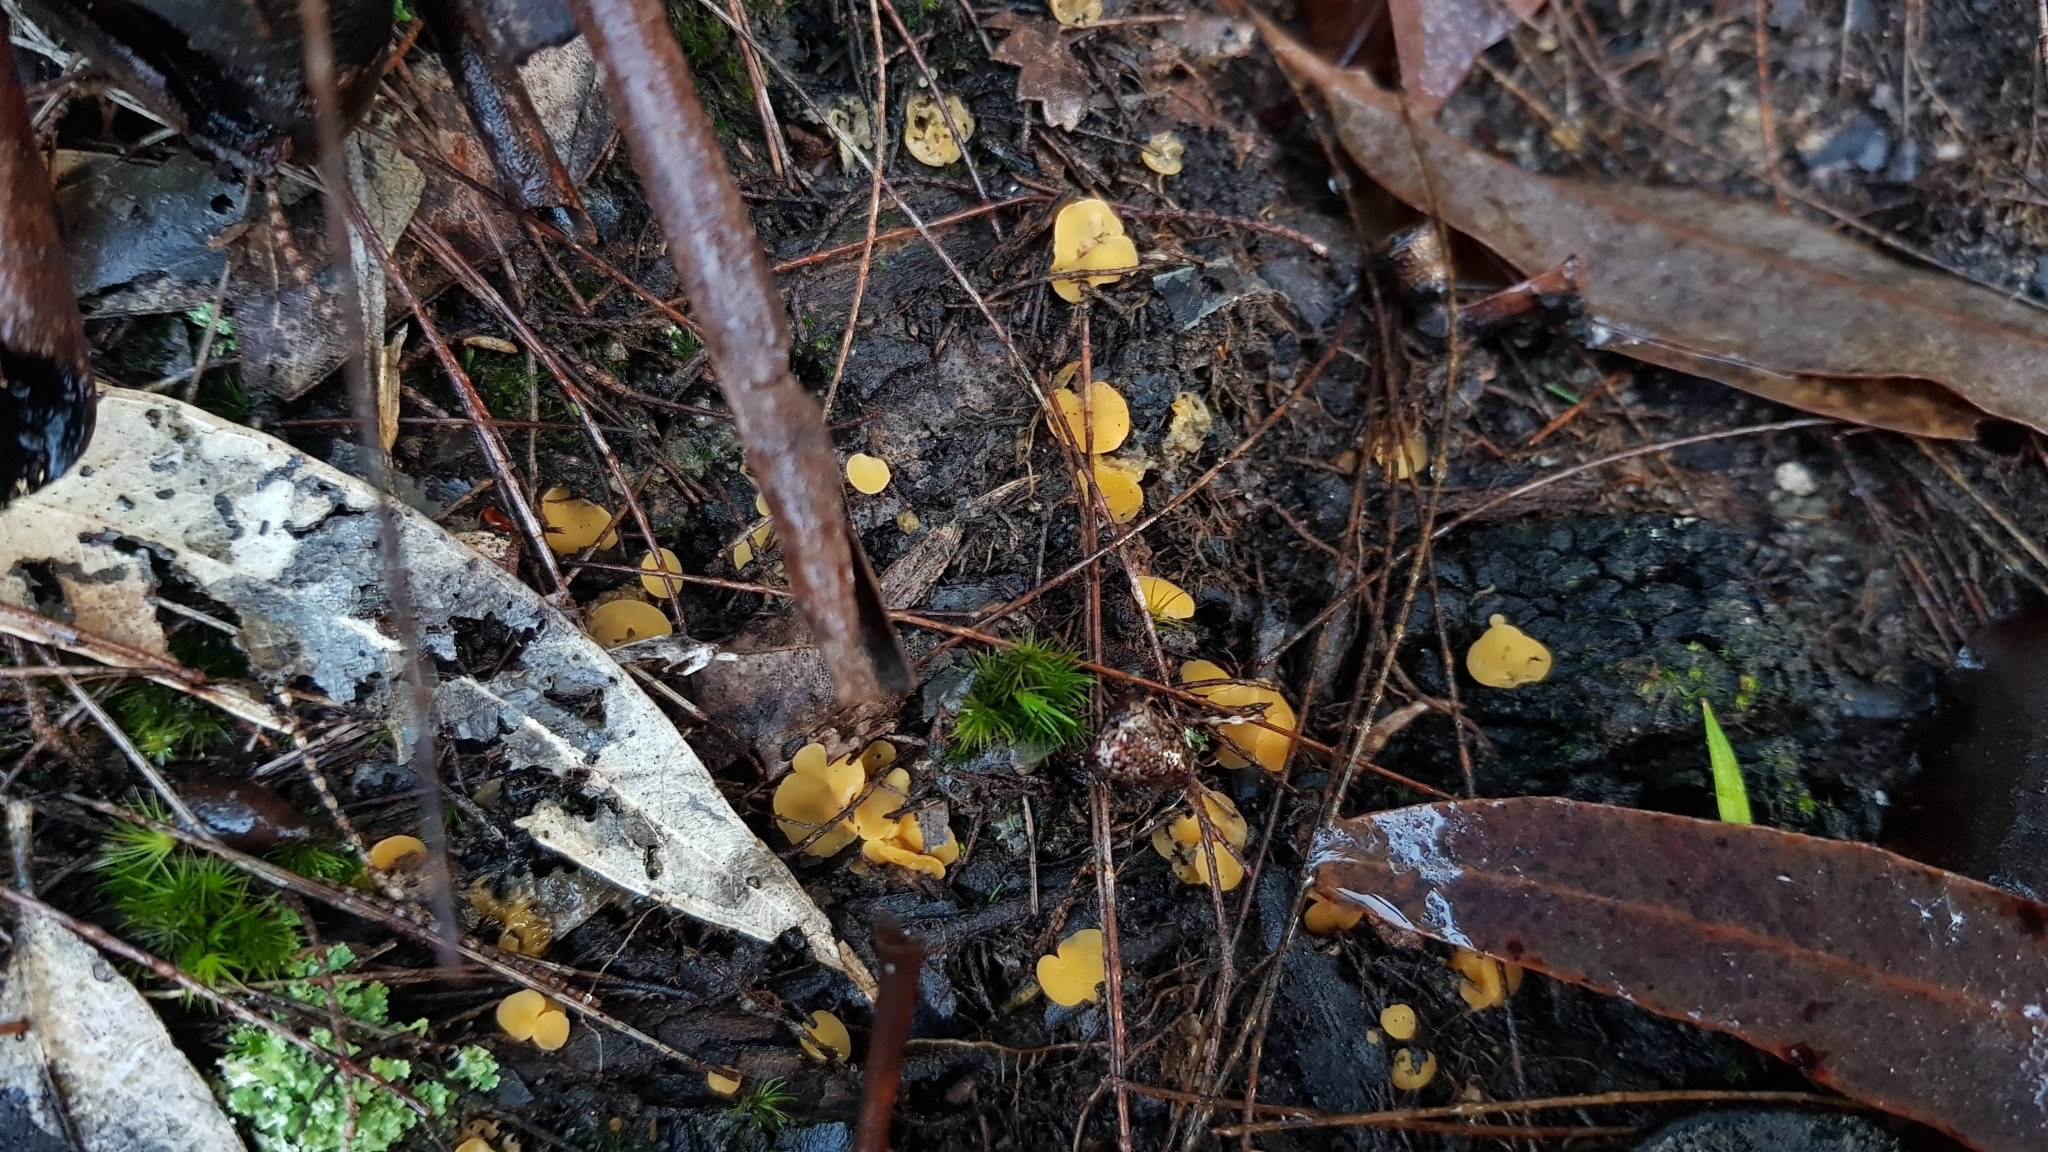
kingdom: Fungi
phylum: Ascomycota
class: Leotiomycetes
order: Helotiales
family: Helotiaceae
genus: Phaeohelotium
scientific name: Phaeohelotium baileyanum
